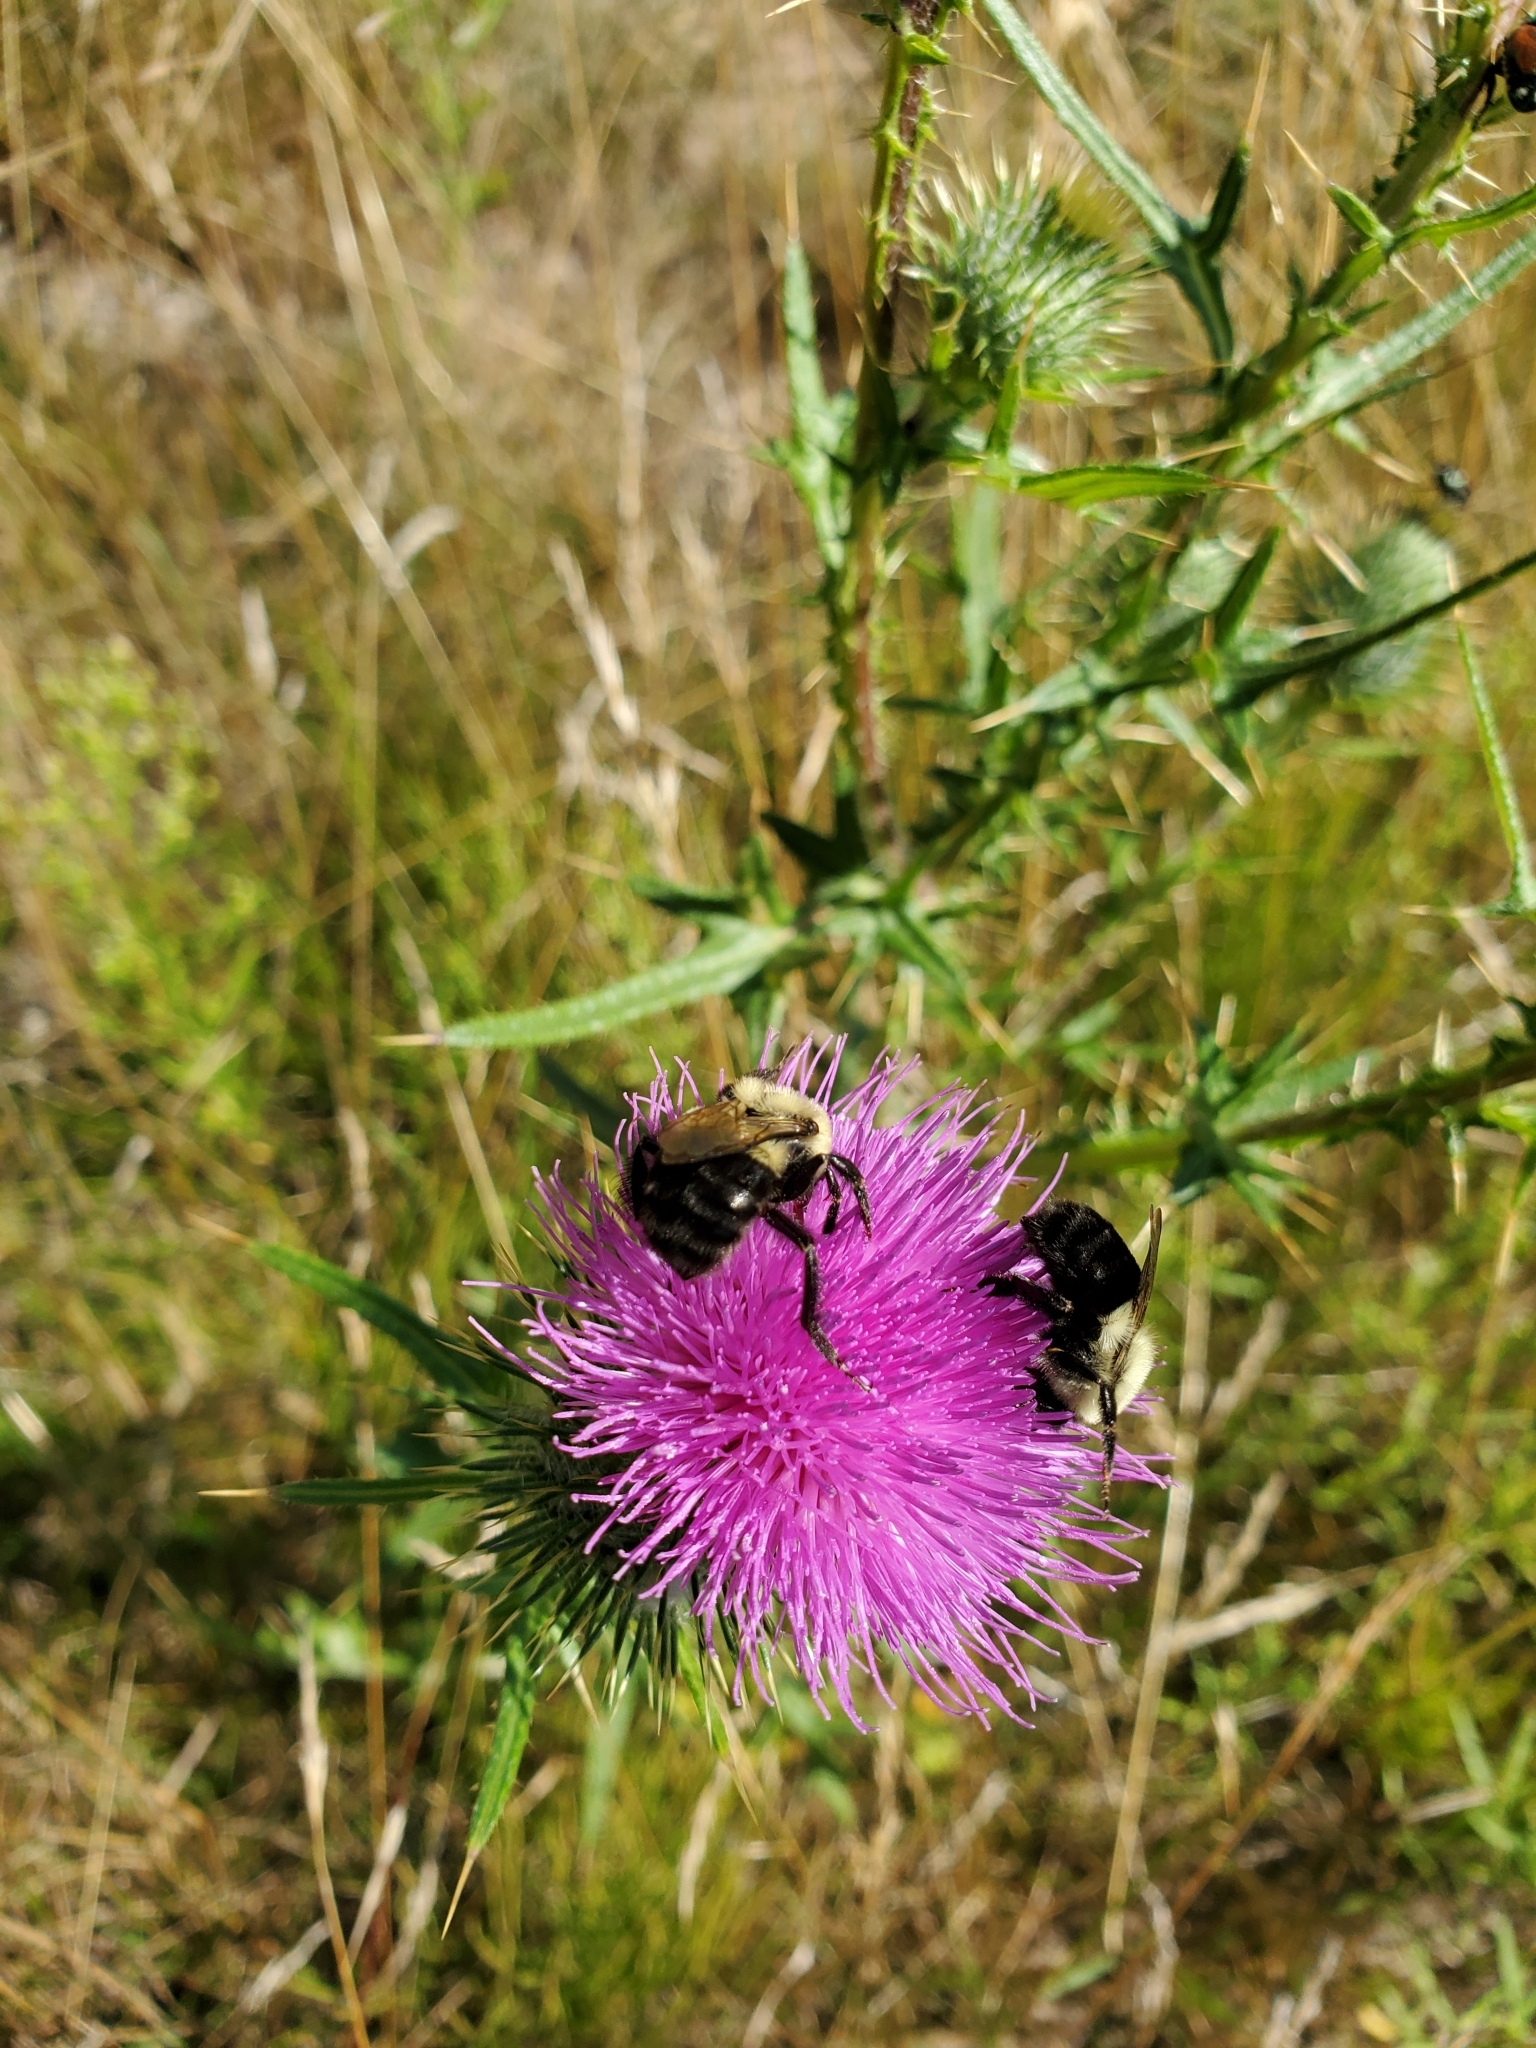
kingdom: Plantae
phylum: Tracheophyta
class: Magnoliopsida
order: Asterales
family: Asteraceae
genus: Cirsium
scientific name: Cirsium vulgare
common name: Bull thistle
